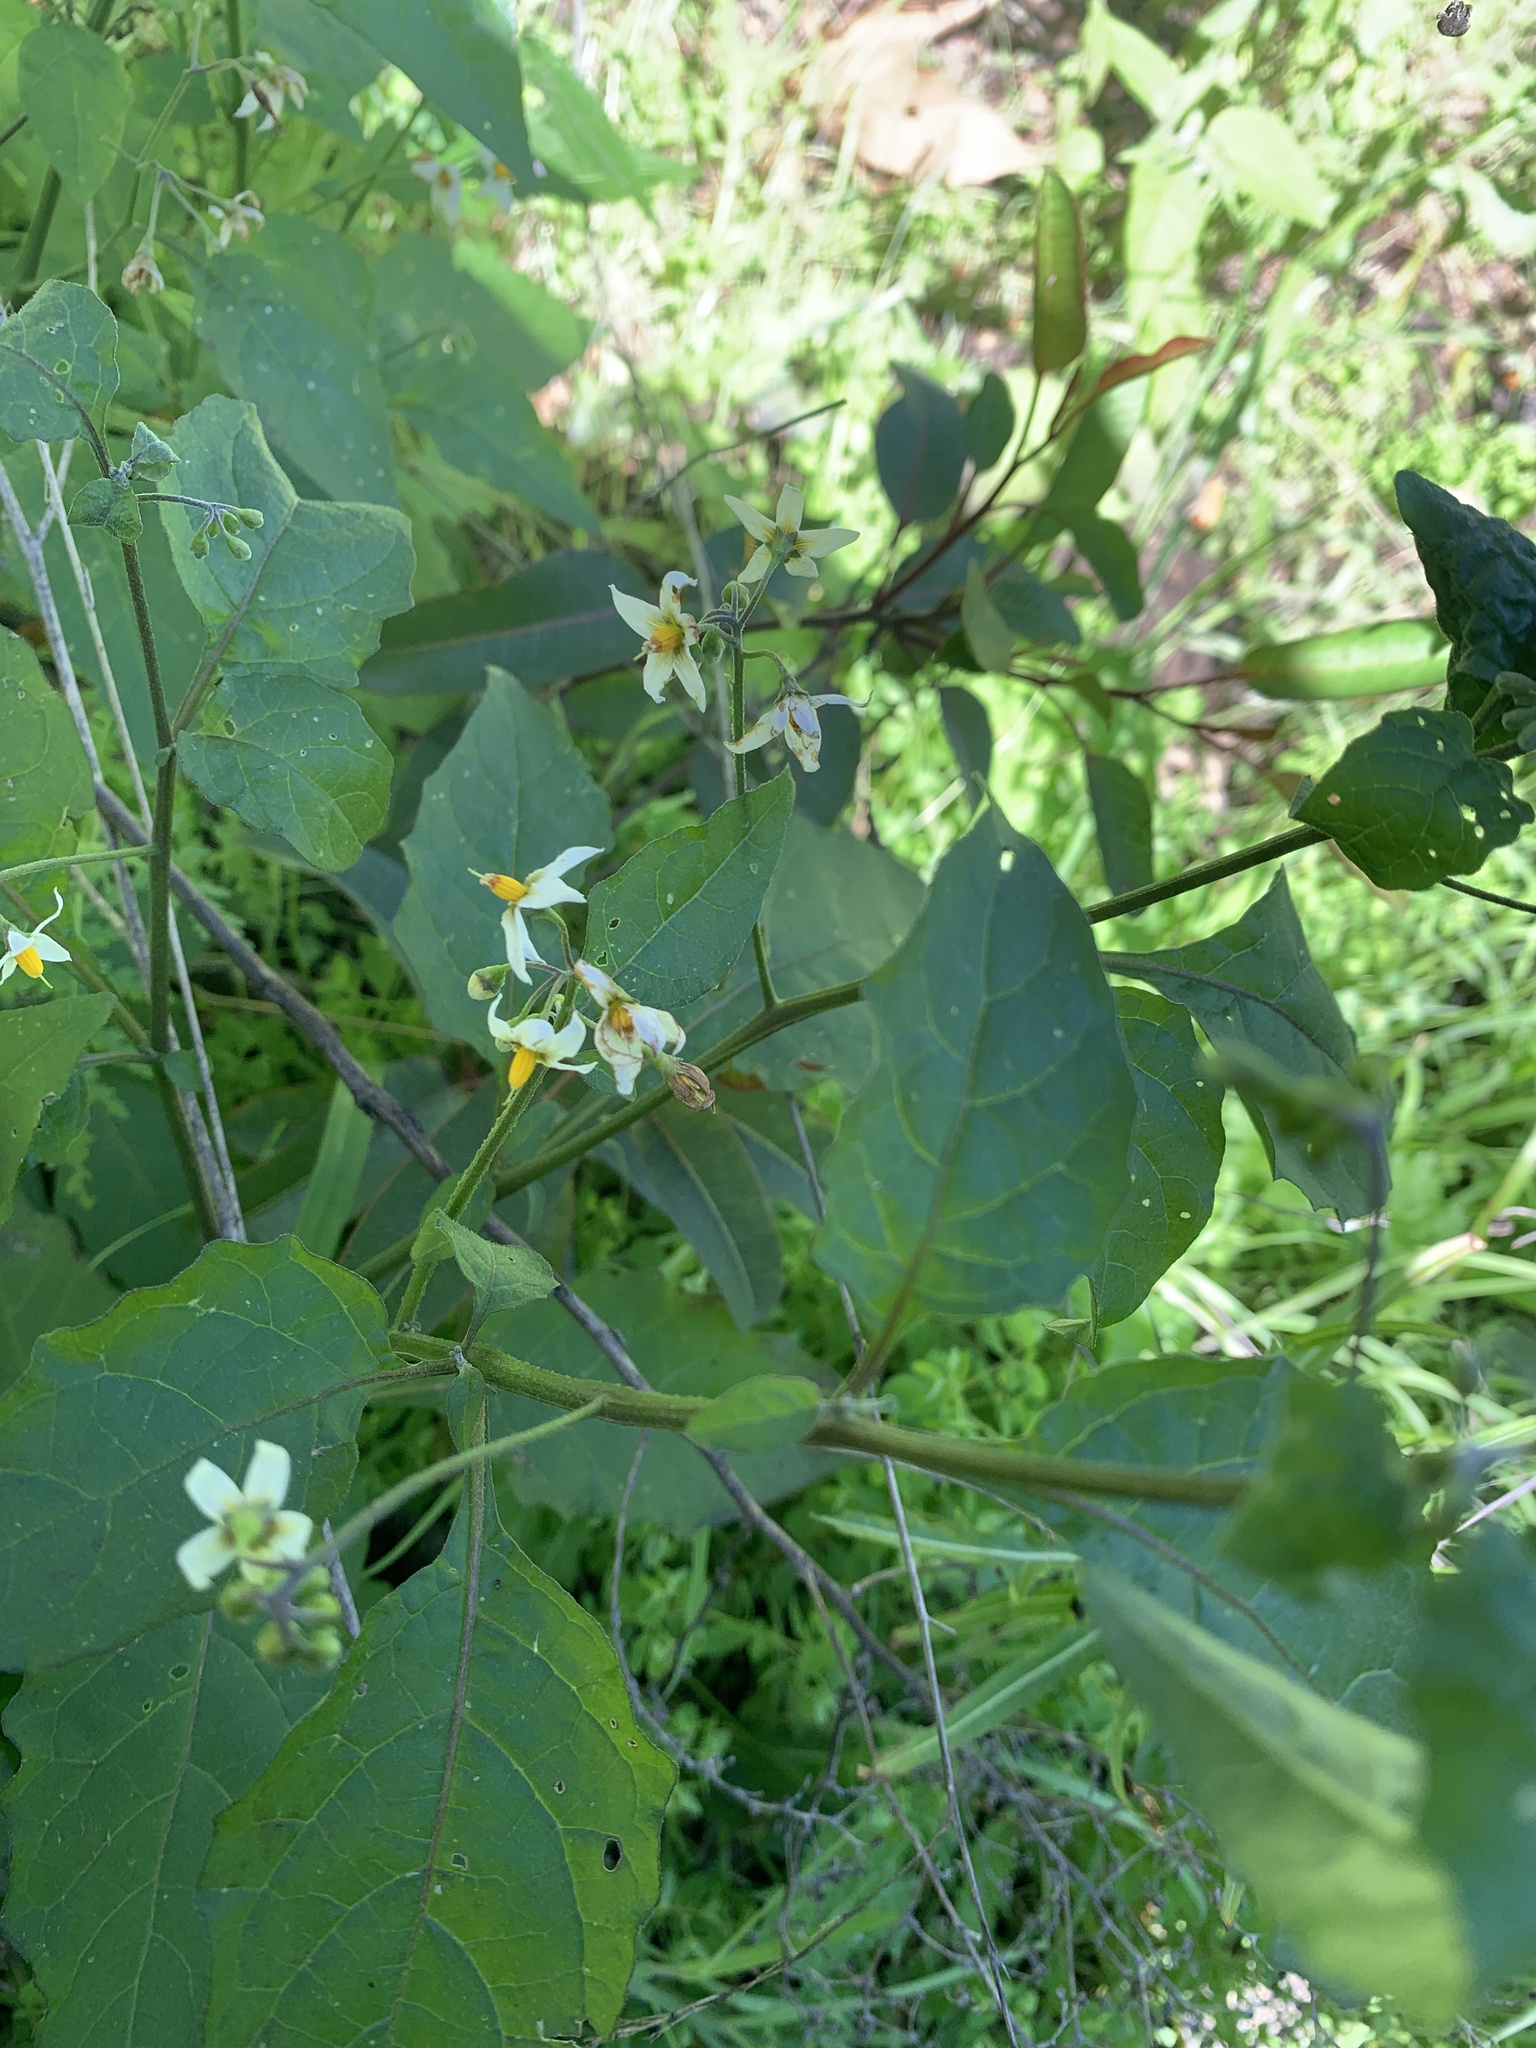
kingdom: Plantae
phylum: Tracheophyta
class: Magnoliopsida
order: Solanales
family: Solanaceae
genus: Solanum
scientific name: Solanum douglasii
